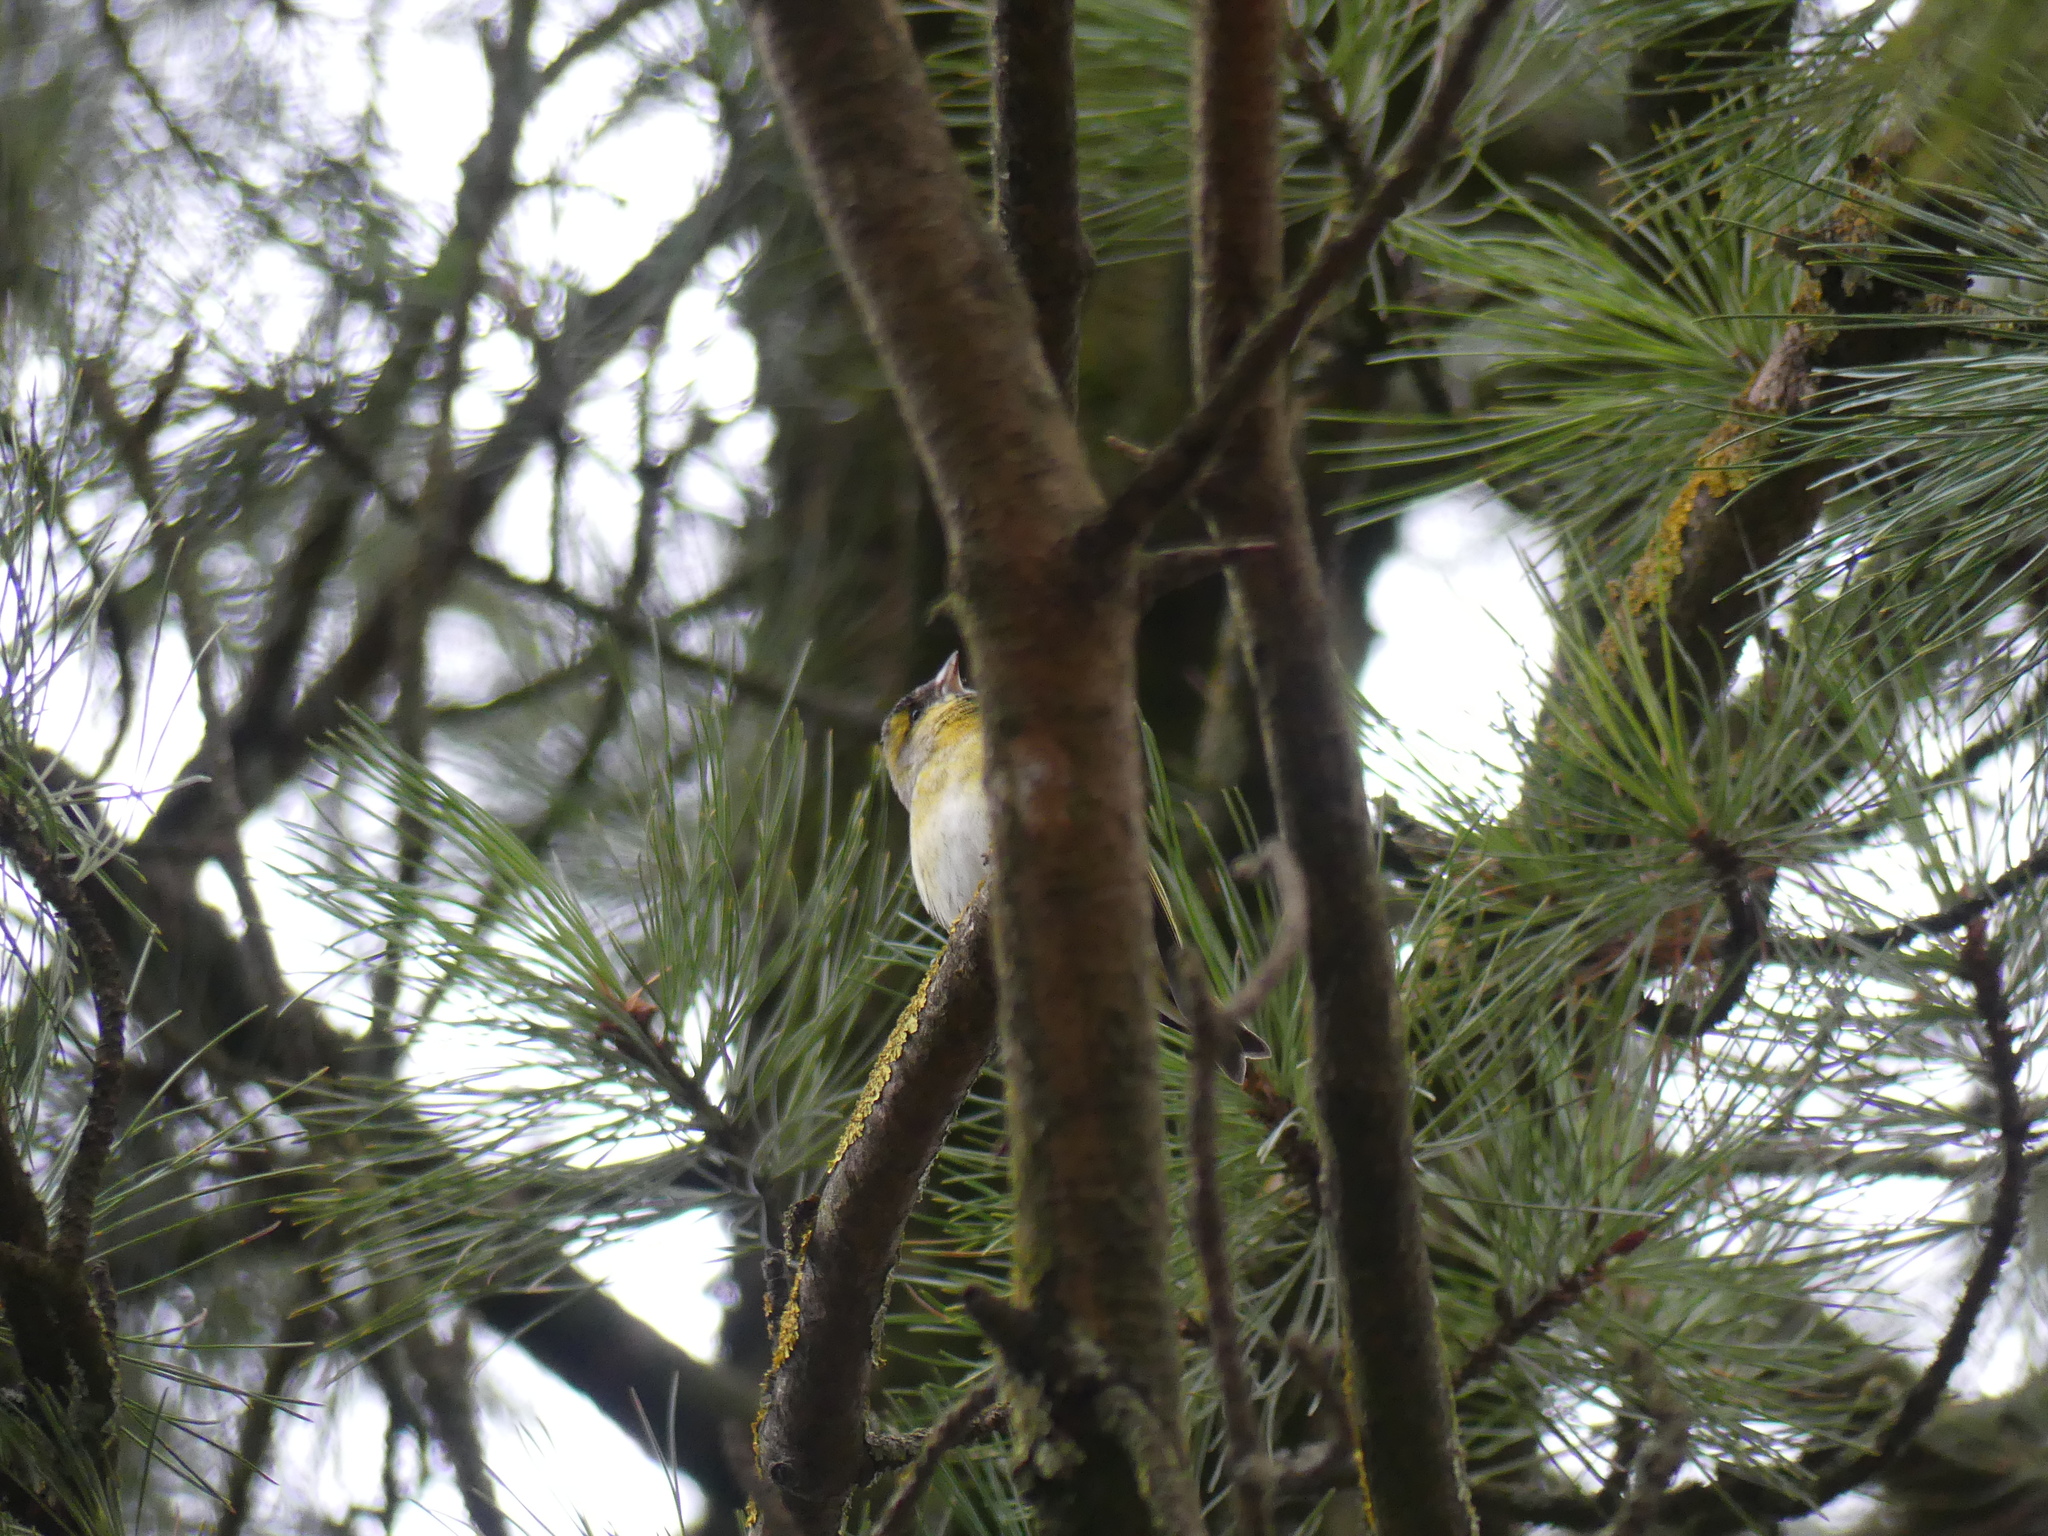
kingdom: Animalia
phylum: Chordata
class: Aves
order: Passeriformes
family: Fringillidae
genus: Spinus
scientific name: Spinus spinus
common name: Eurasian siskin
